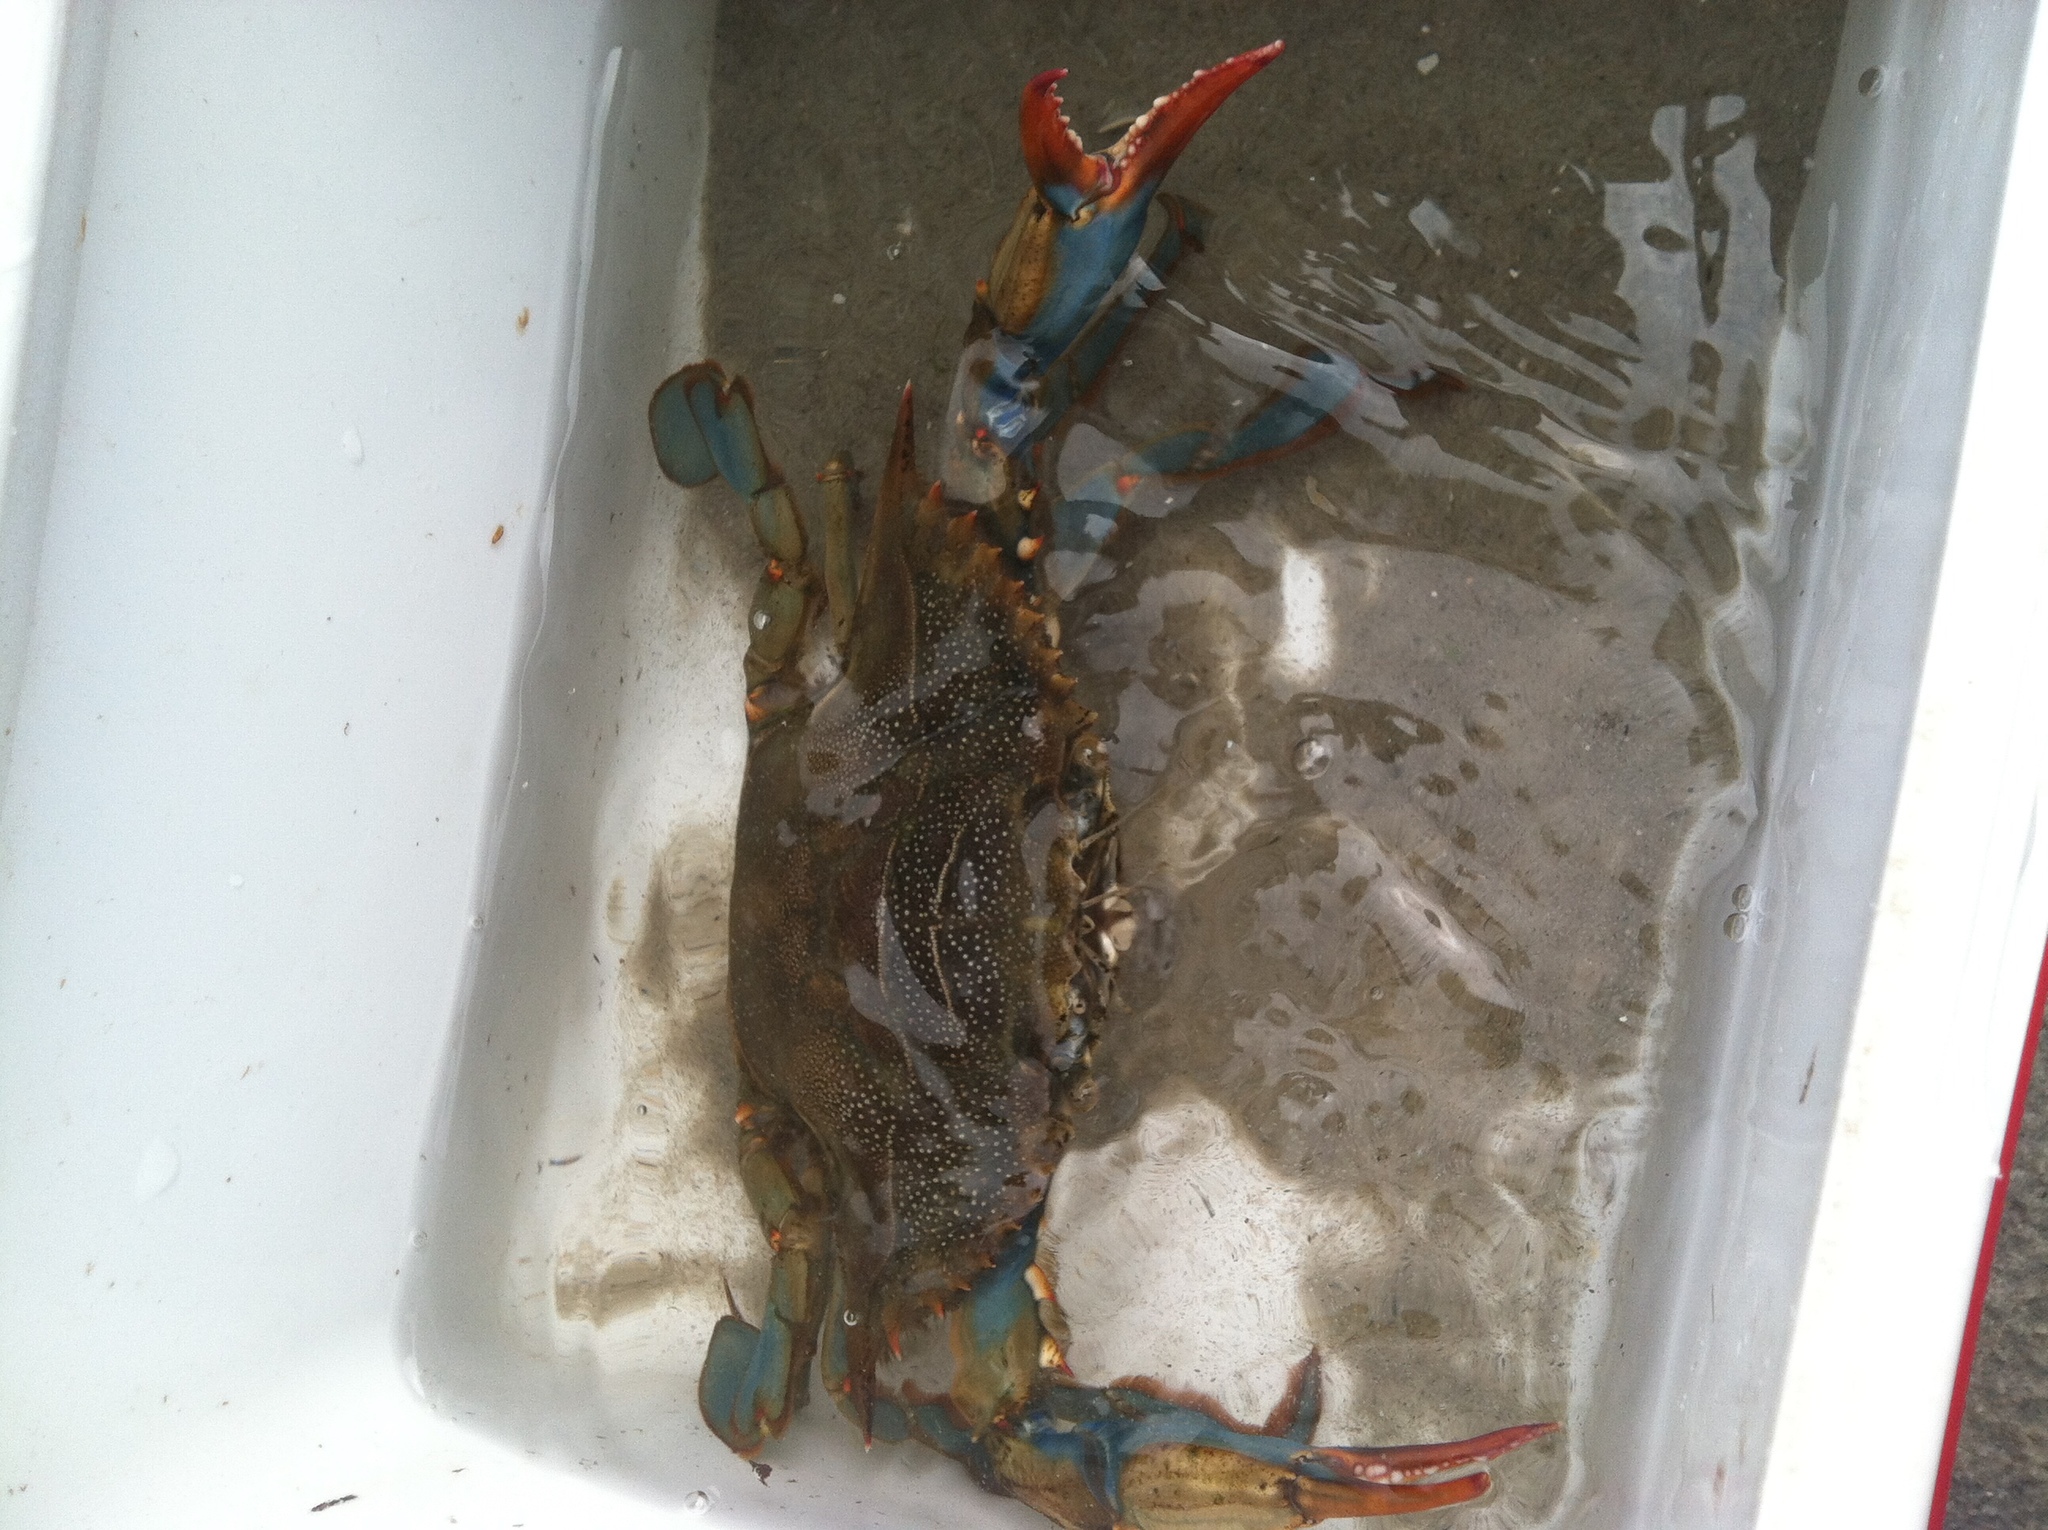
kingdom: Animalia
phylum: Arthropoda
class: Malacostraca
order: Decapoda
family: Portunidae
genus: Callinectes
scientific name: Callinectes sapidus
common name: Blue crab
